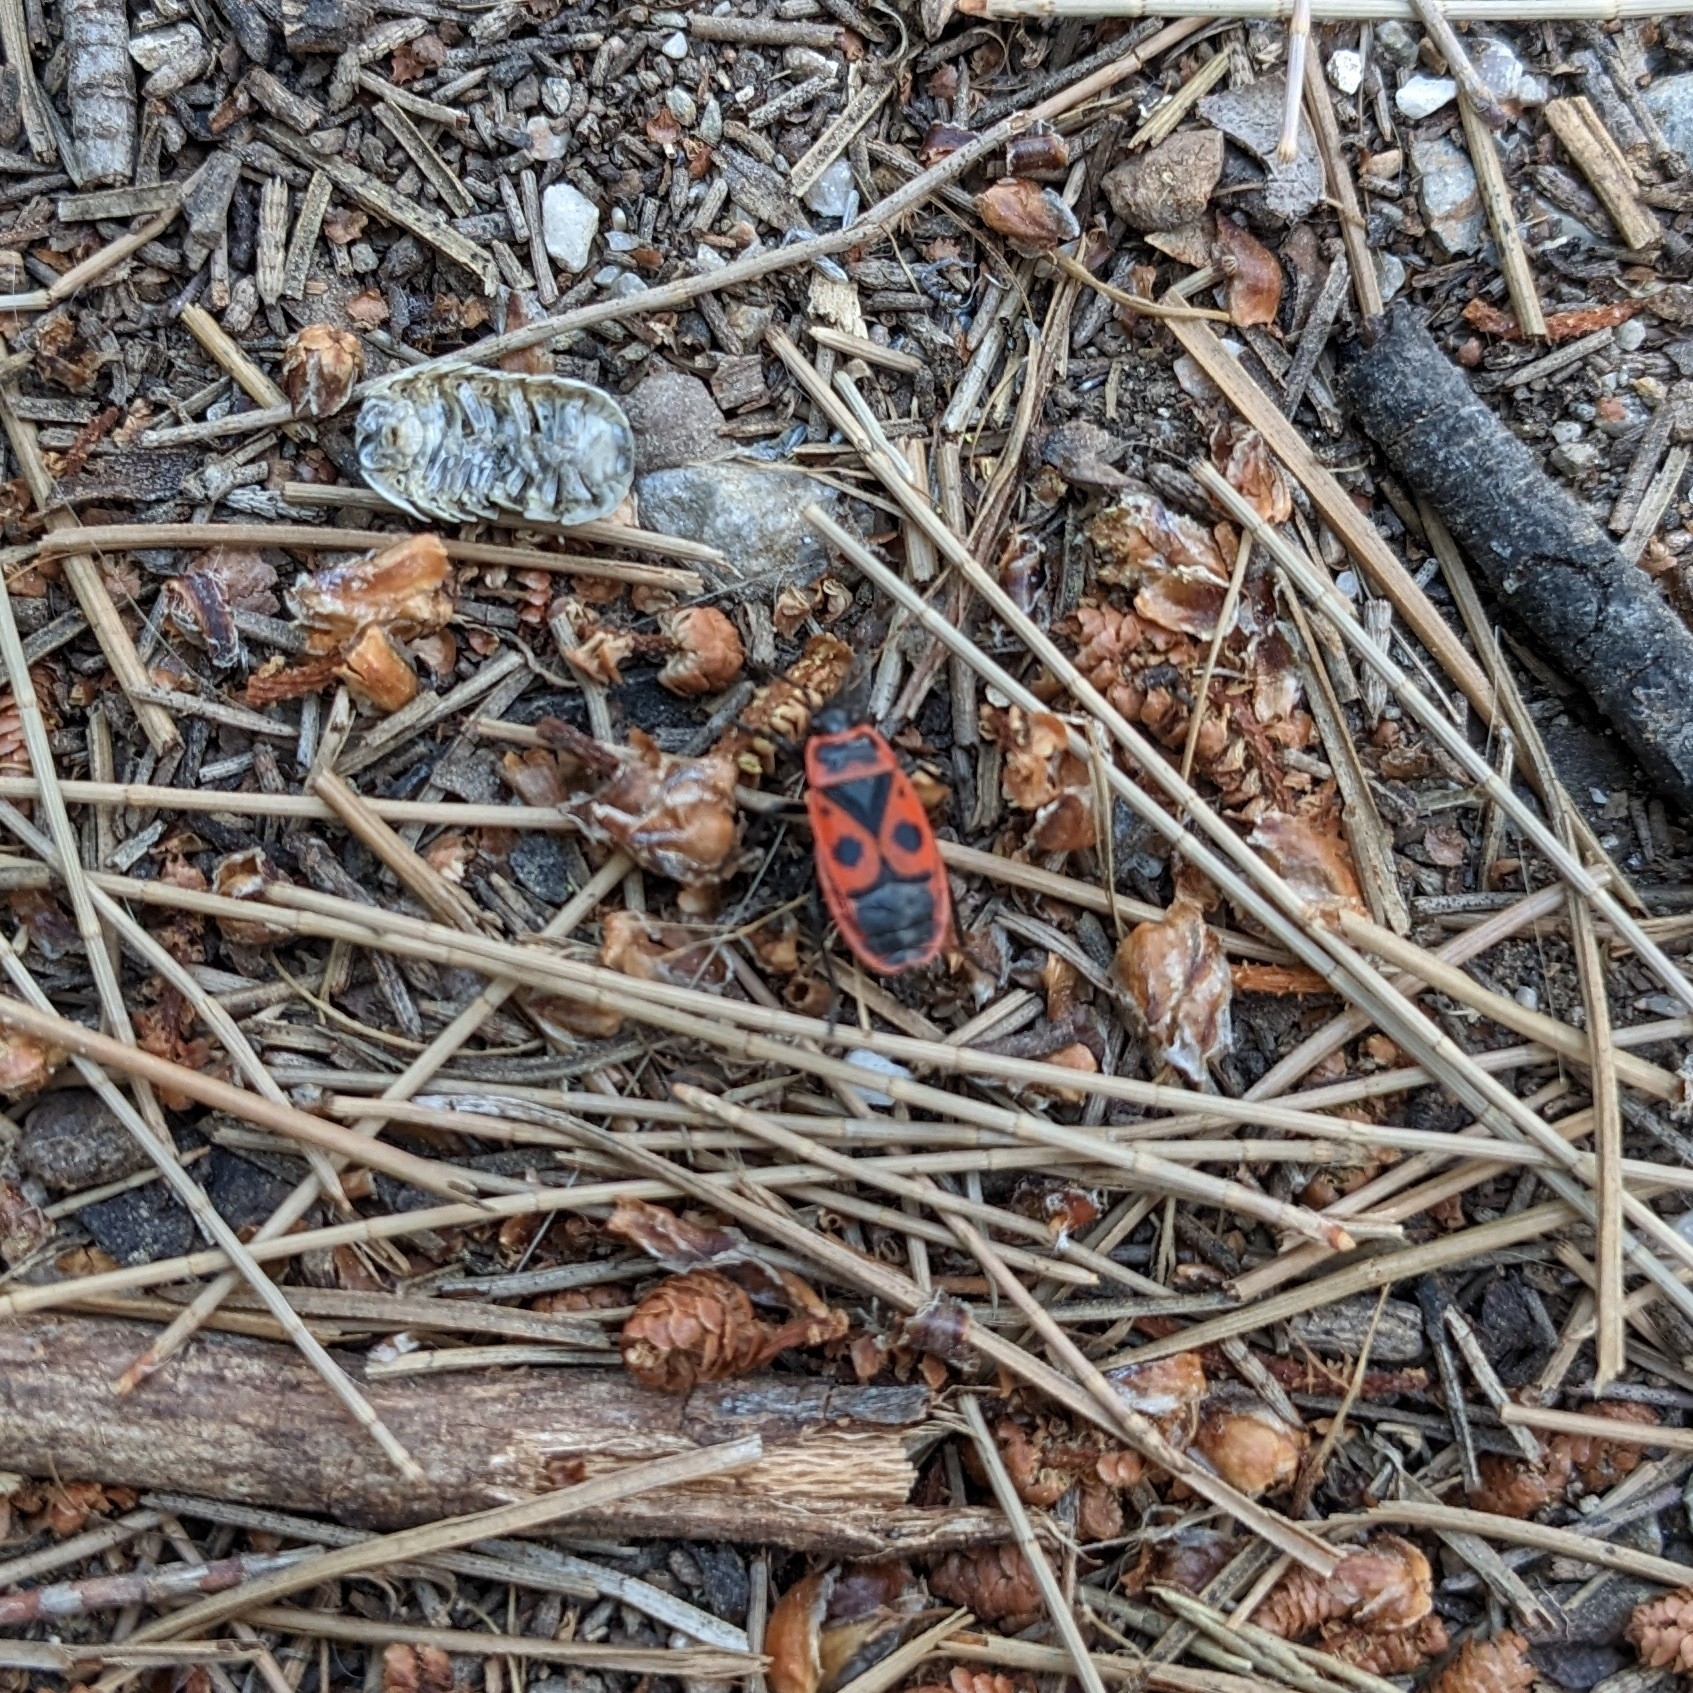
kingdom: Animalia
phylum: Arthropoda
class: Insecta
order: Hemiptera
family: Pyrrhocoridae
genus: Pyrrhocoris
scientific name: Pyrrhocoris apterus
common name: Firebug
